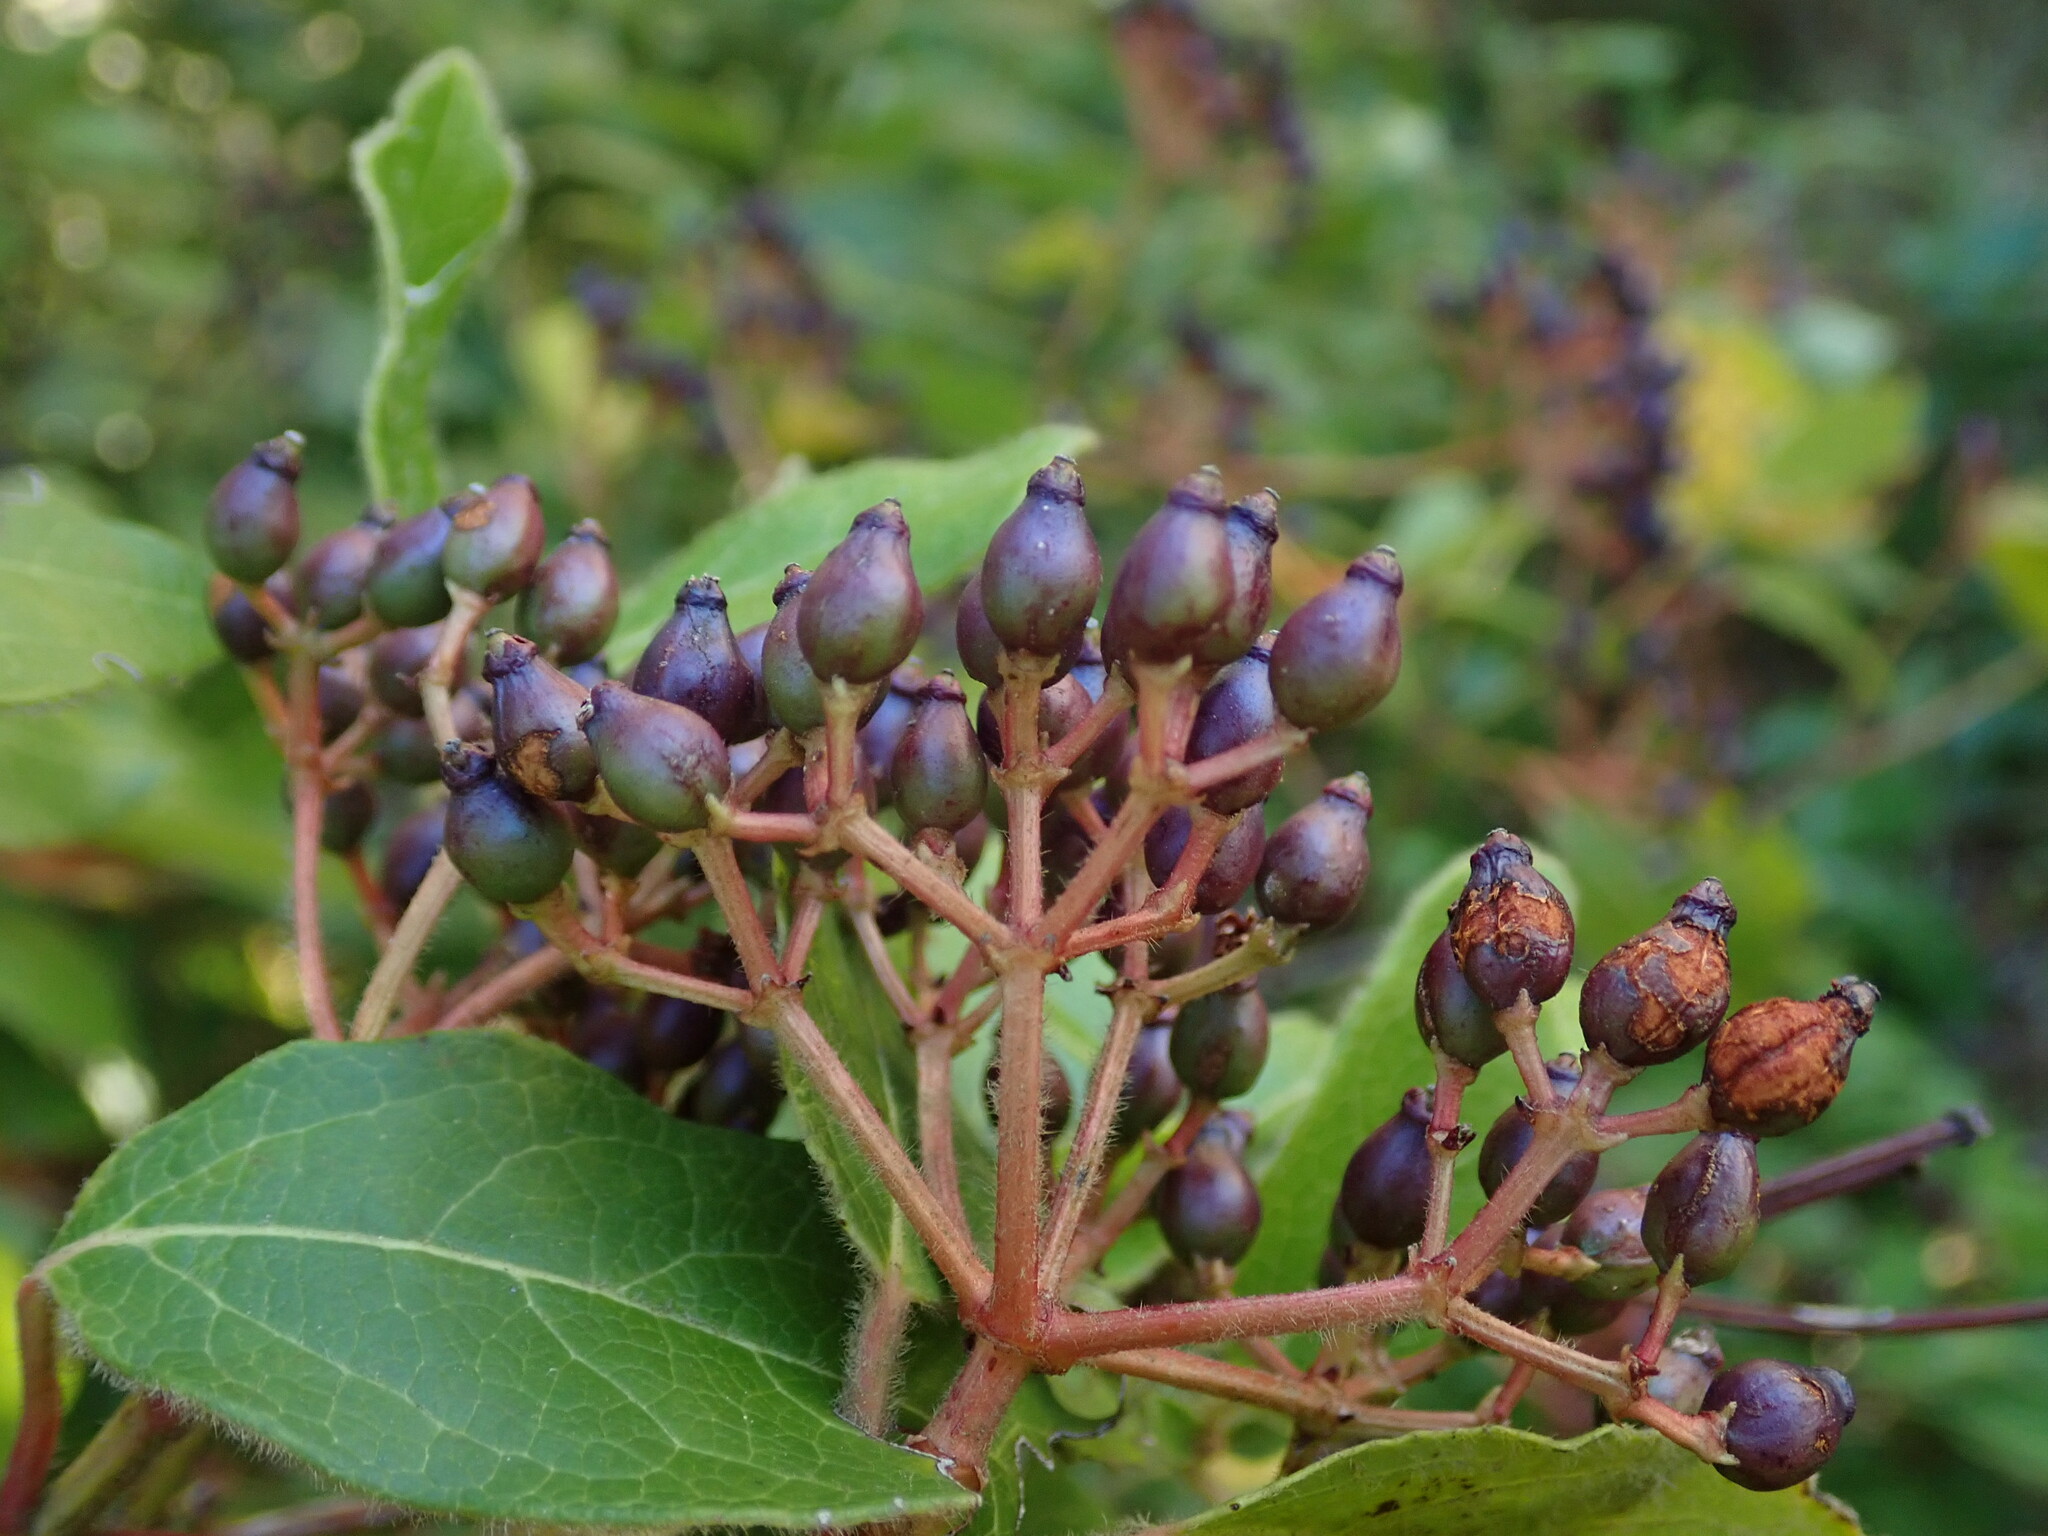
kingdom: Plantae
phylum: Tracheophyta
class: Magnoliopsida
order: Dipsacales
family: Viburnaceae
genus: Viburnum
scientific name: Viburnum tinus
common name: Laurustinus
